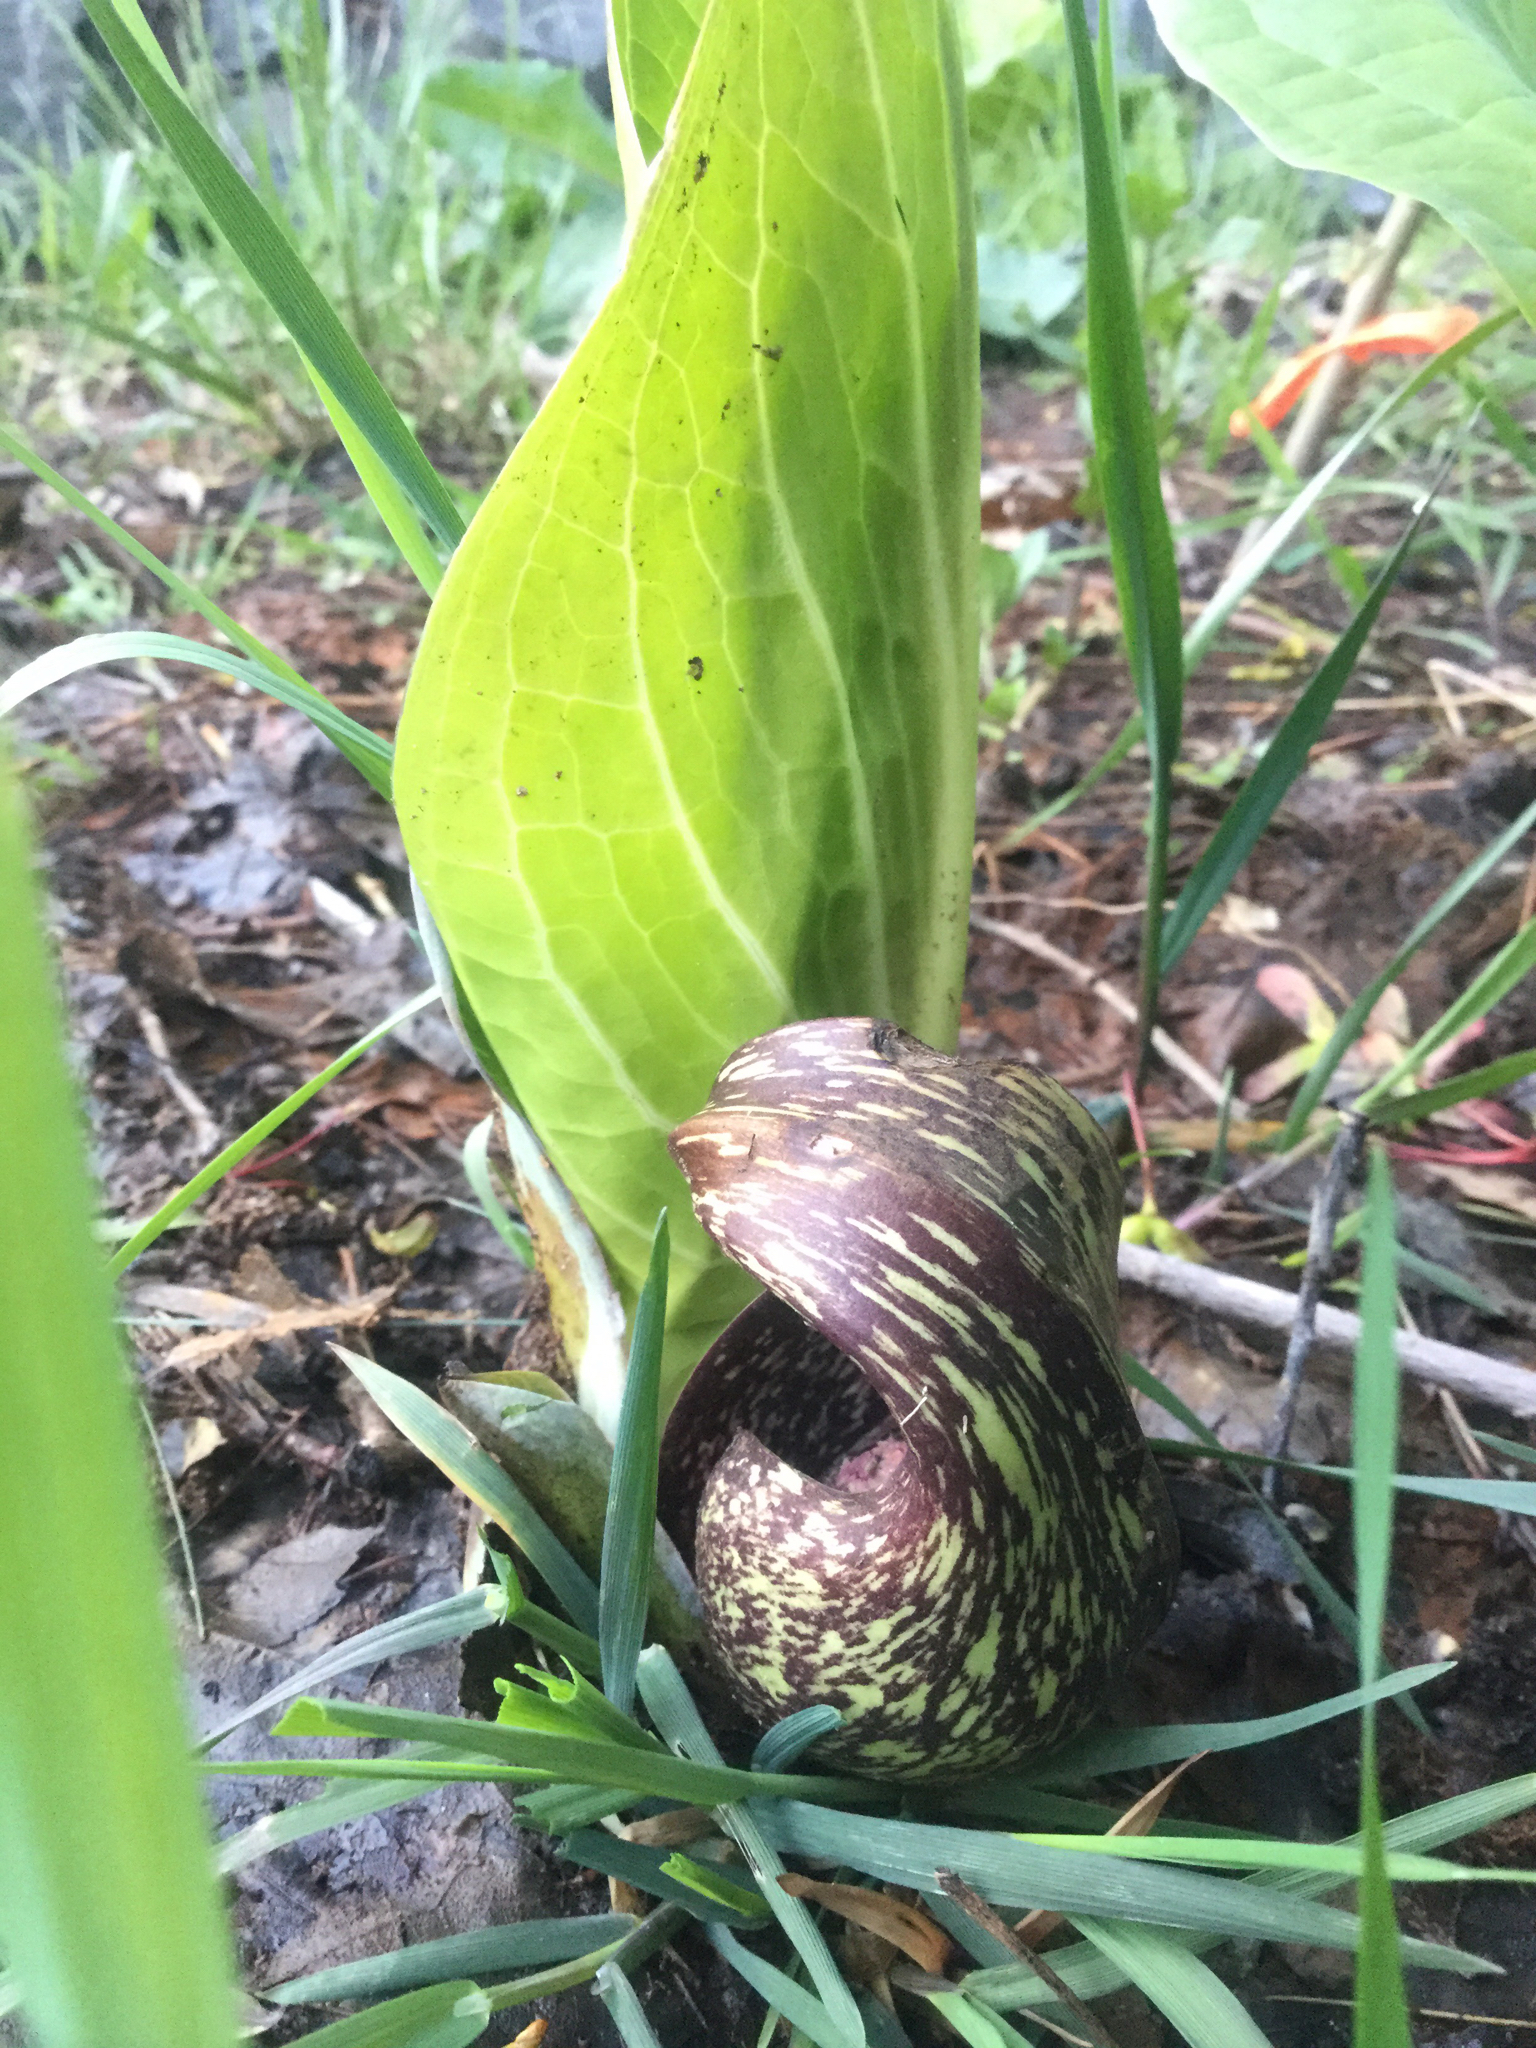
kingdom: Plantae
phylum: Tracheophyta
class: Liliopsida
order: Alismatales
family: Araceae
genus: Symplocarpus
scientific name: Symplocarpus foetidus
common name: Eastern skunk cabbage
